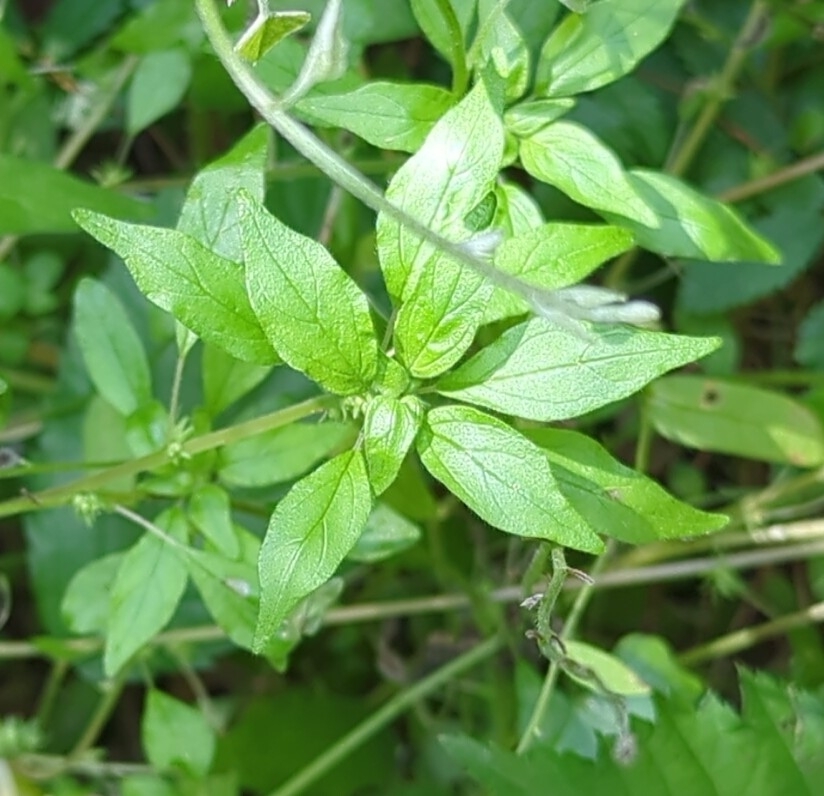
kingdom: Plantae
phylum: Tracheophyta
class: Magnoliopsida
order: Rosales
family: Urticaceae
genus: Parietaria
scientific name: Parietaria pensylvanica
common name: Pennsylvania pellitory
